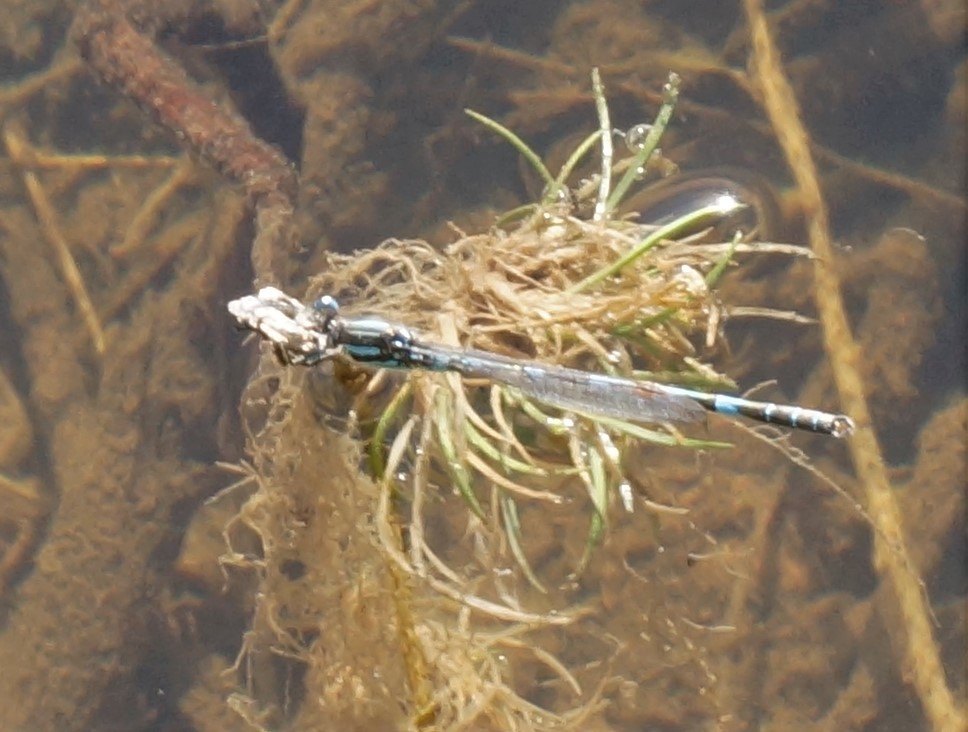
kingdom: Animalia
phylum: Arthropoda
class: Insecta
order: Odonata
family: Lestidae
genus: Austrolestes
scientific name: Austrolestes annulosus
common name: Blue ringtail
